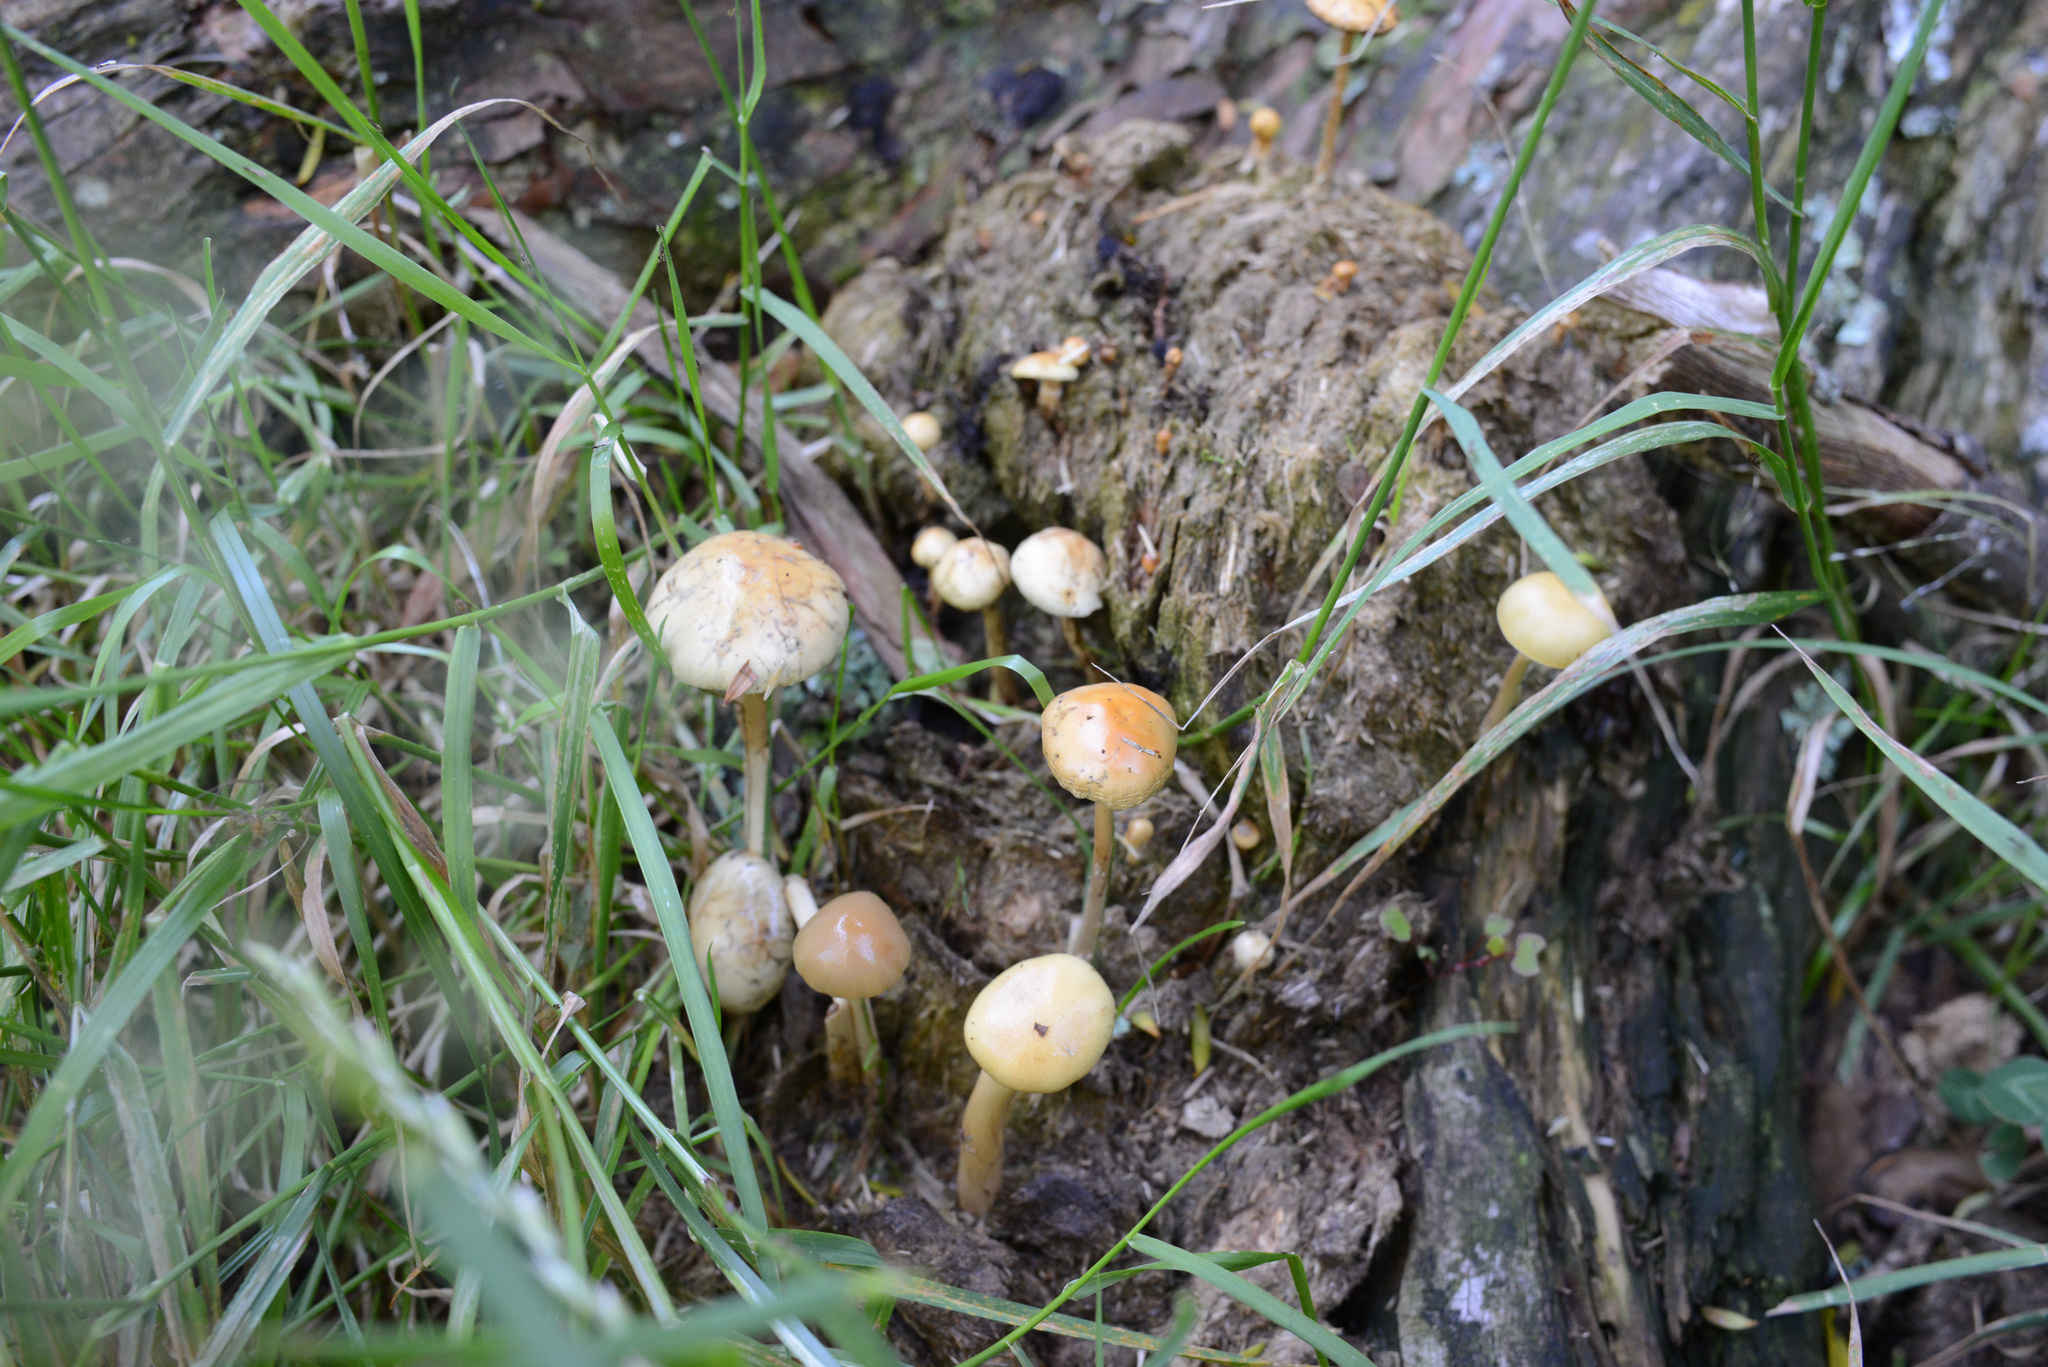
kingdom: Fungi
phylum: Basidiomycota
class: Agaricomycetes
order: Agaricales
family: Strophariaceae
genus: Protostropharia
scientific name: Protostropharia semiglobata
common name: Dung roundhead
